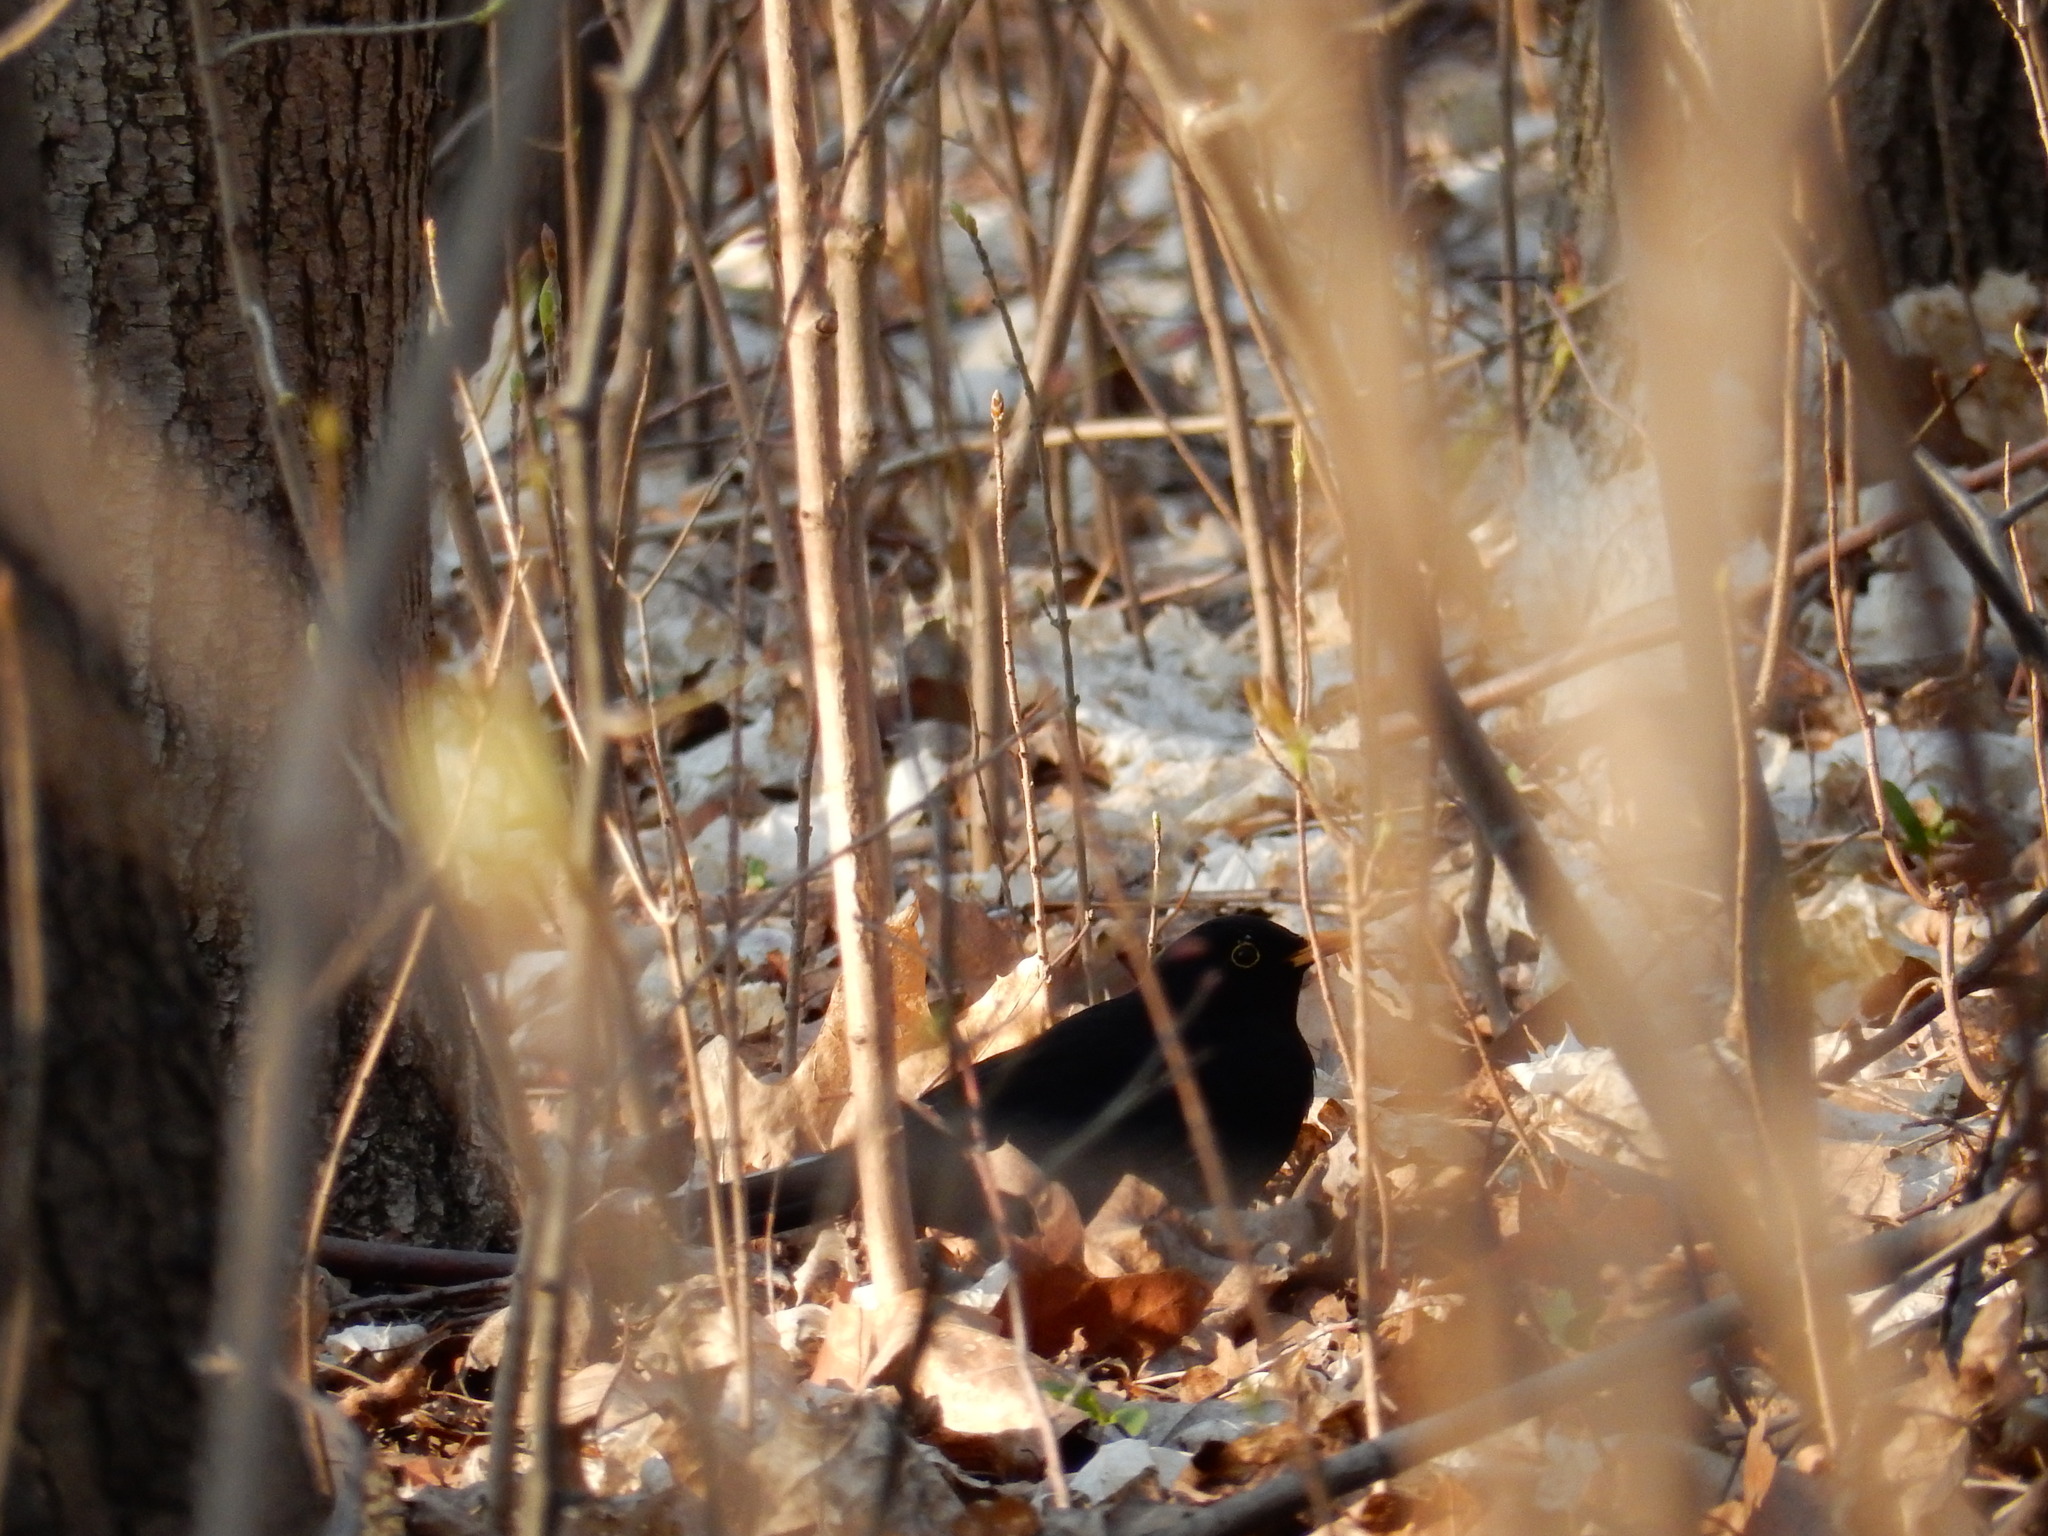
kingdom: Animalia
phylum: Chordata
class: Aves
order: Passeriformes
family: Turdidae
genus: Turdus
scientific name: Turdus merula
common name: Common blackbird
